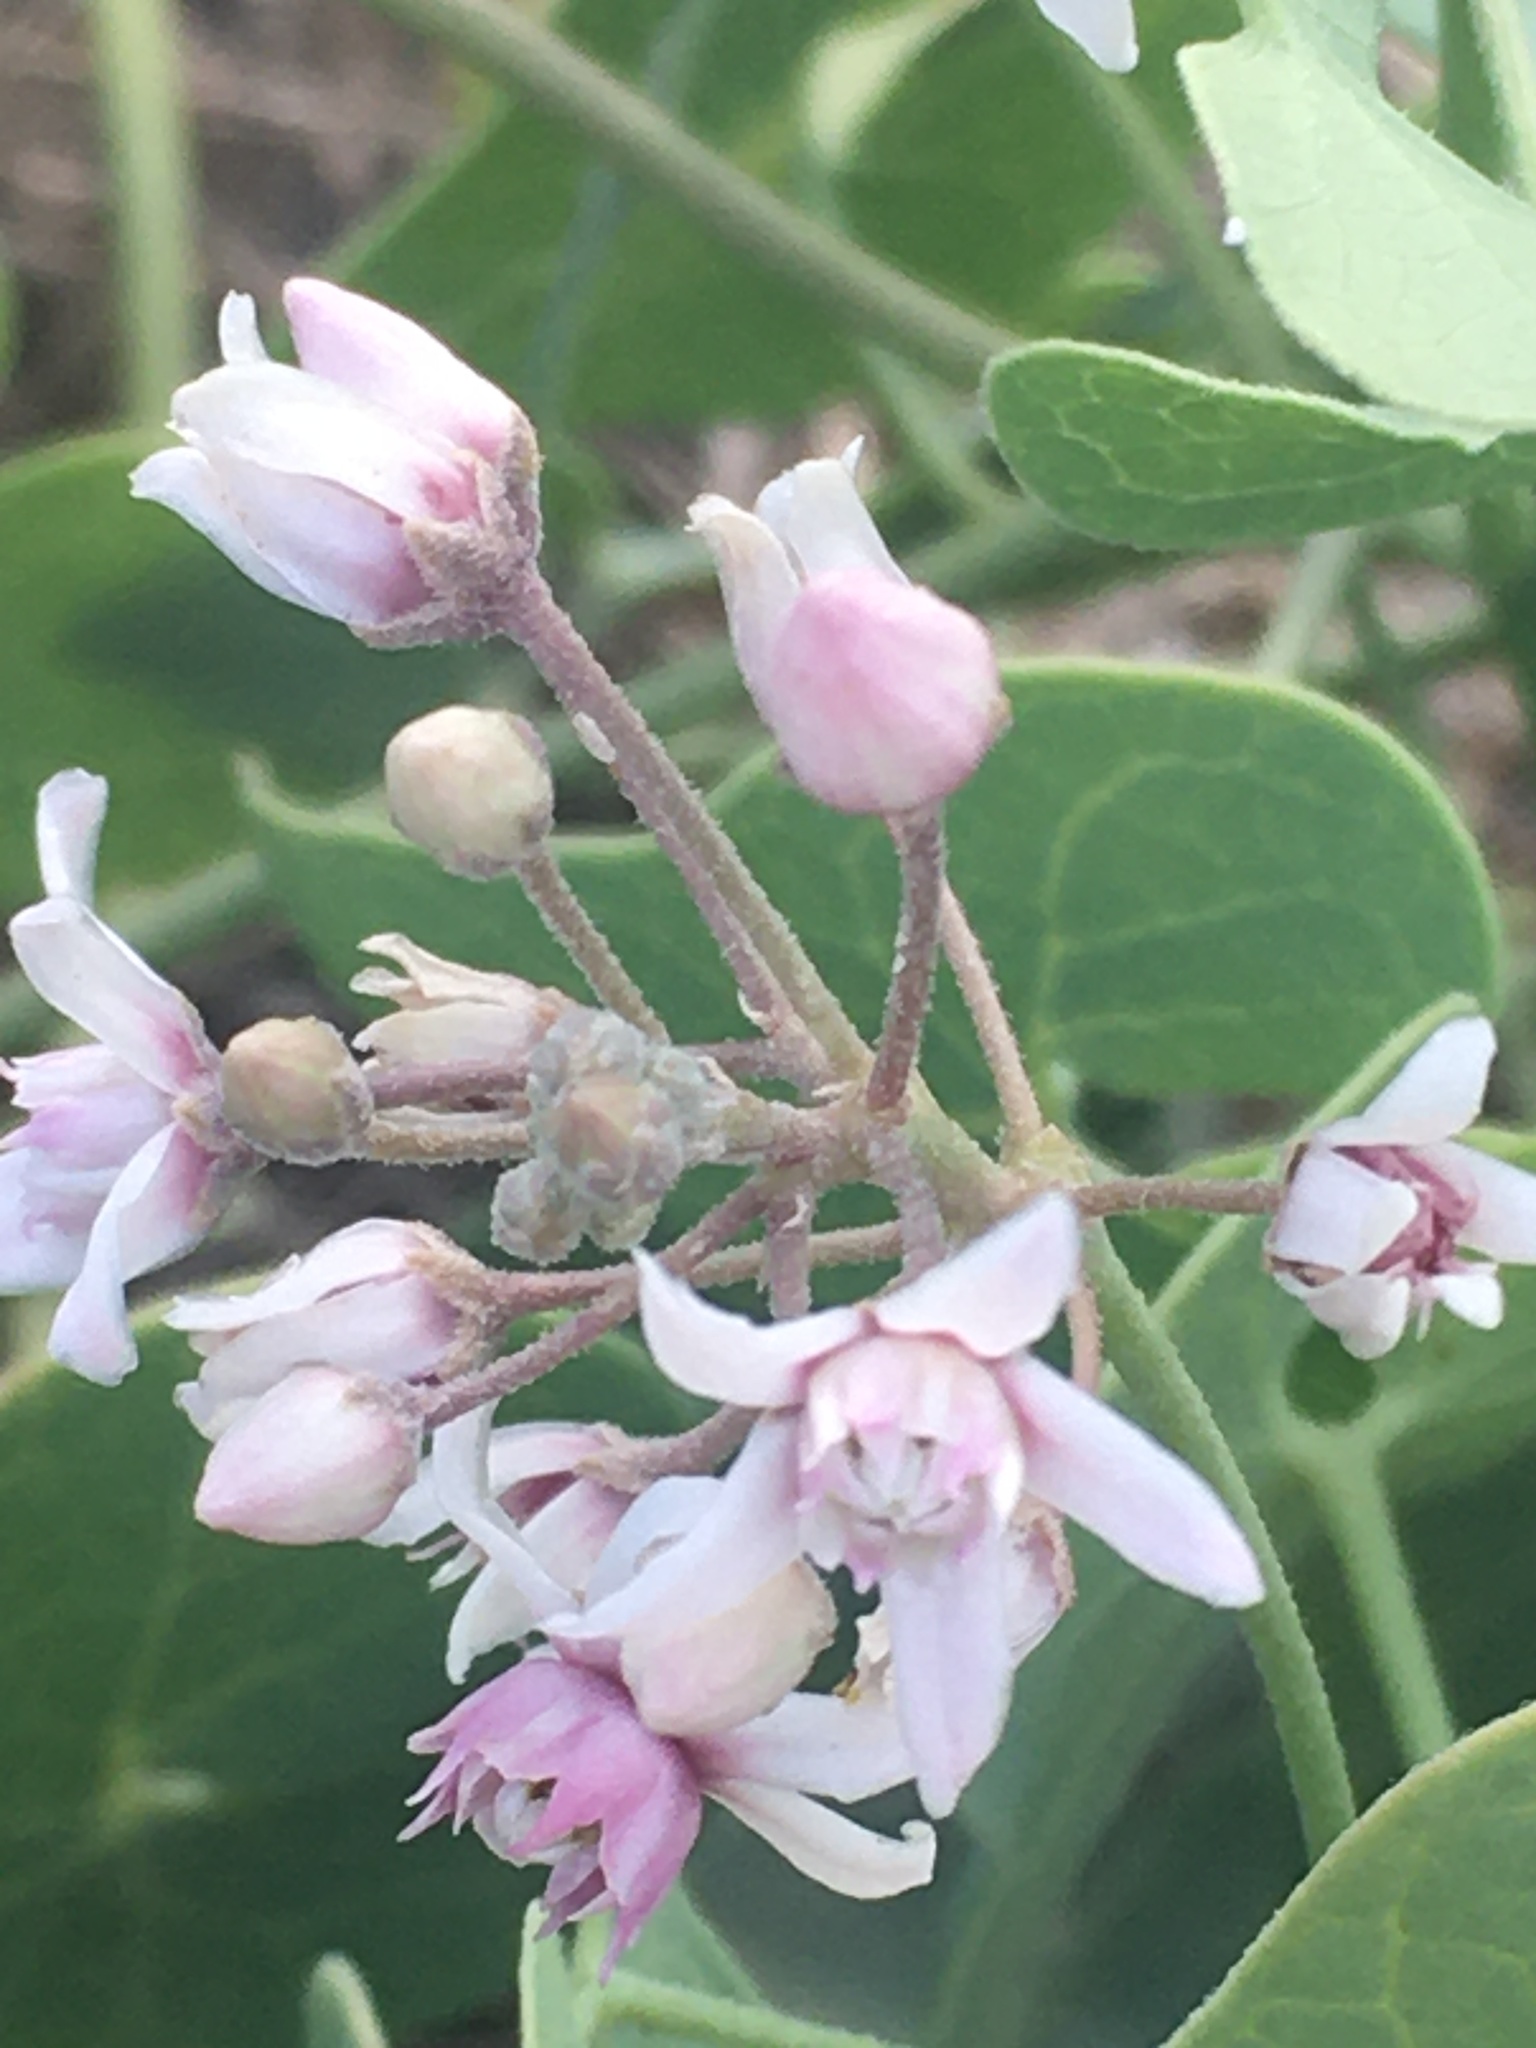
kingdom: Plantae
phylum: Tracheophyta
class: Magnoliopsida
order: Gentianales
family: Apocynaceae
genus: Cynanchum
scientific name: Cynanchum acutum
